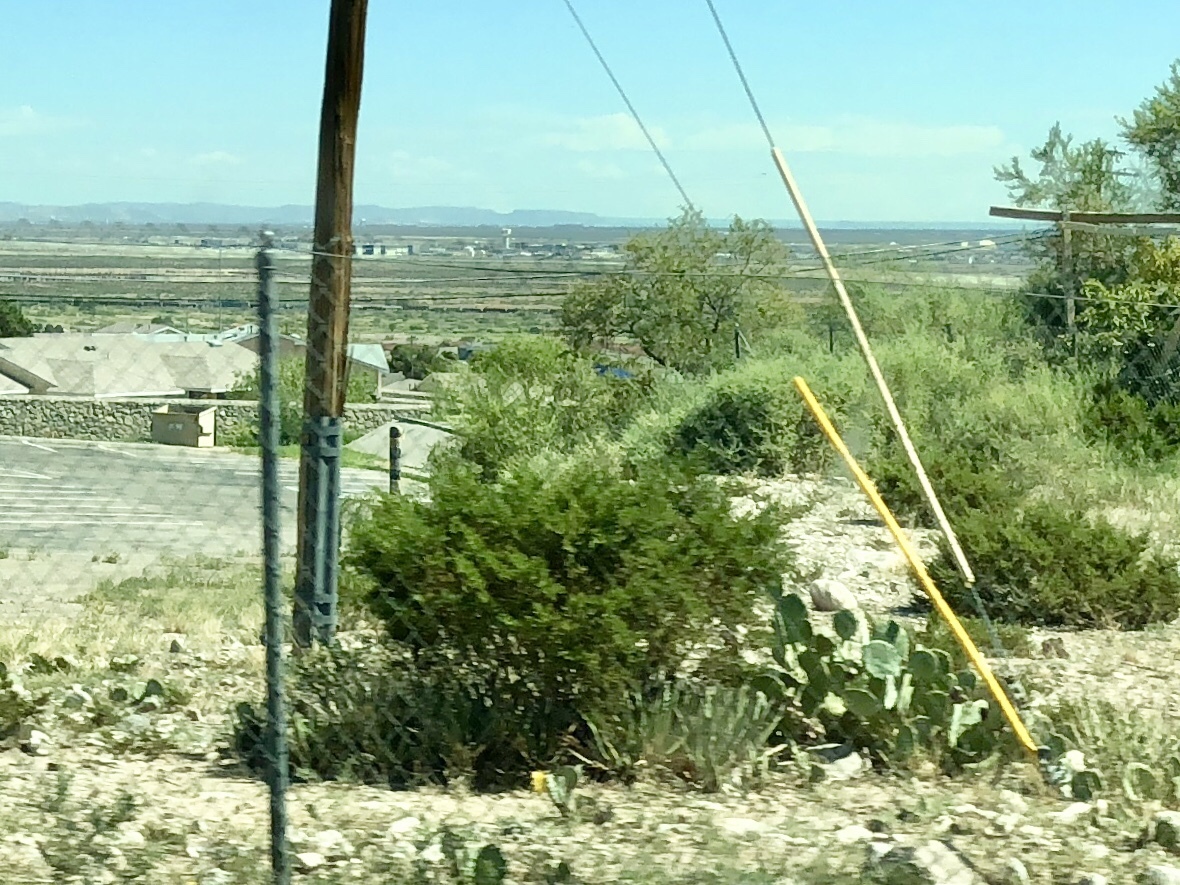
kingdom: Plantae
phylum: Tracheophyta
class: Magnoliopsida
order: Zygophyllales
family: Zygophyllaceae
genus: Larrea
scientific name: Larrea tridentata
